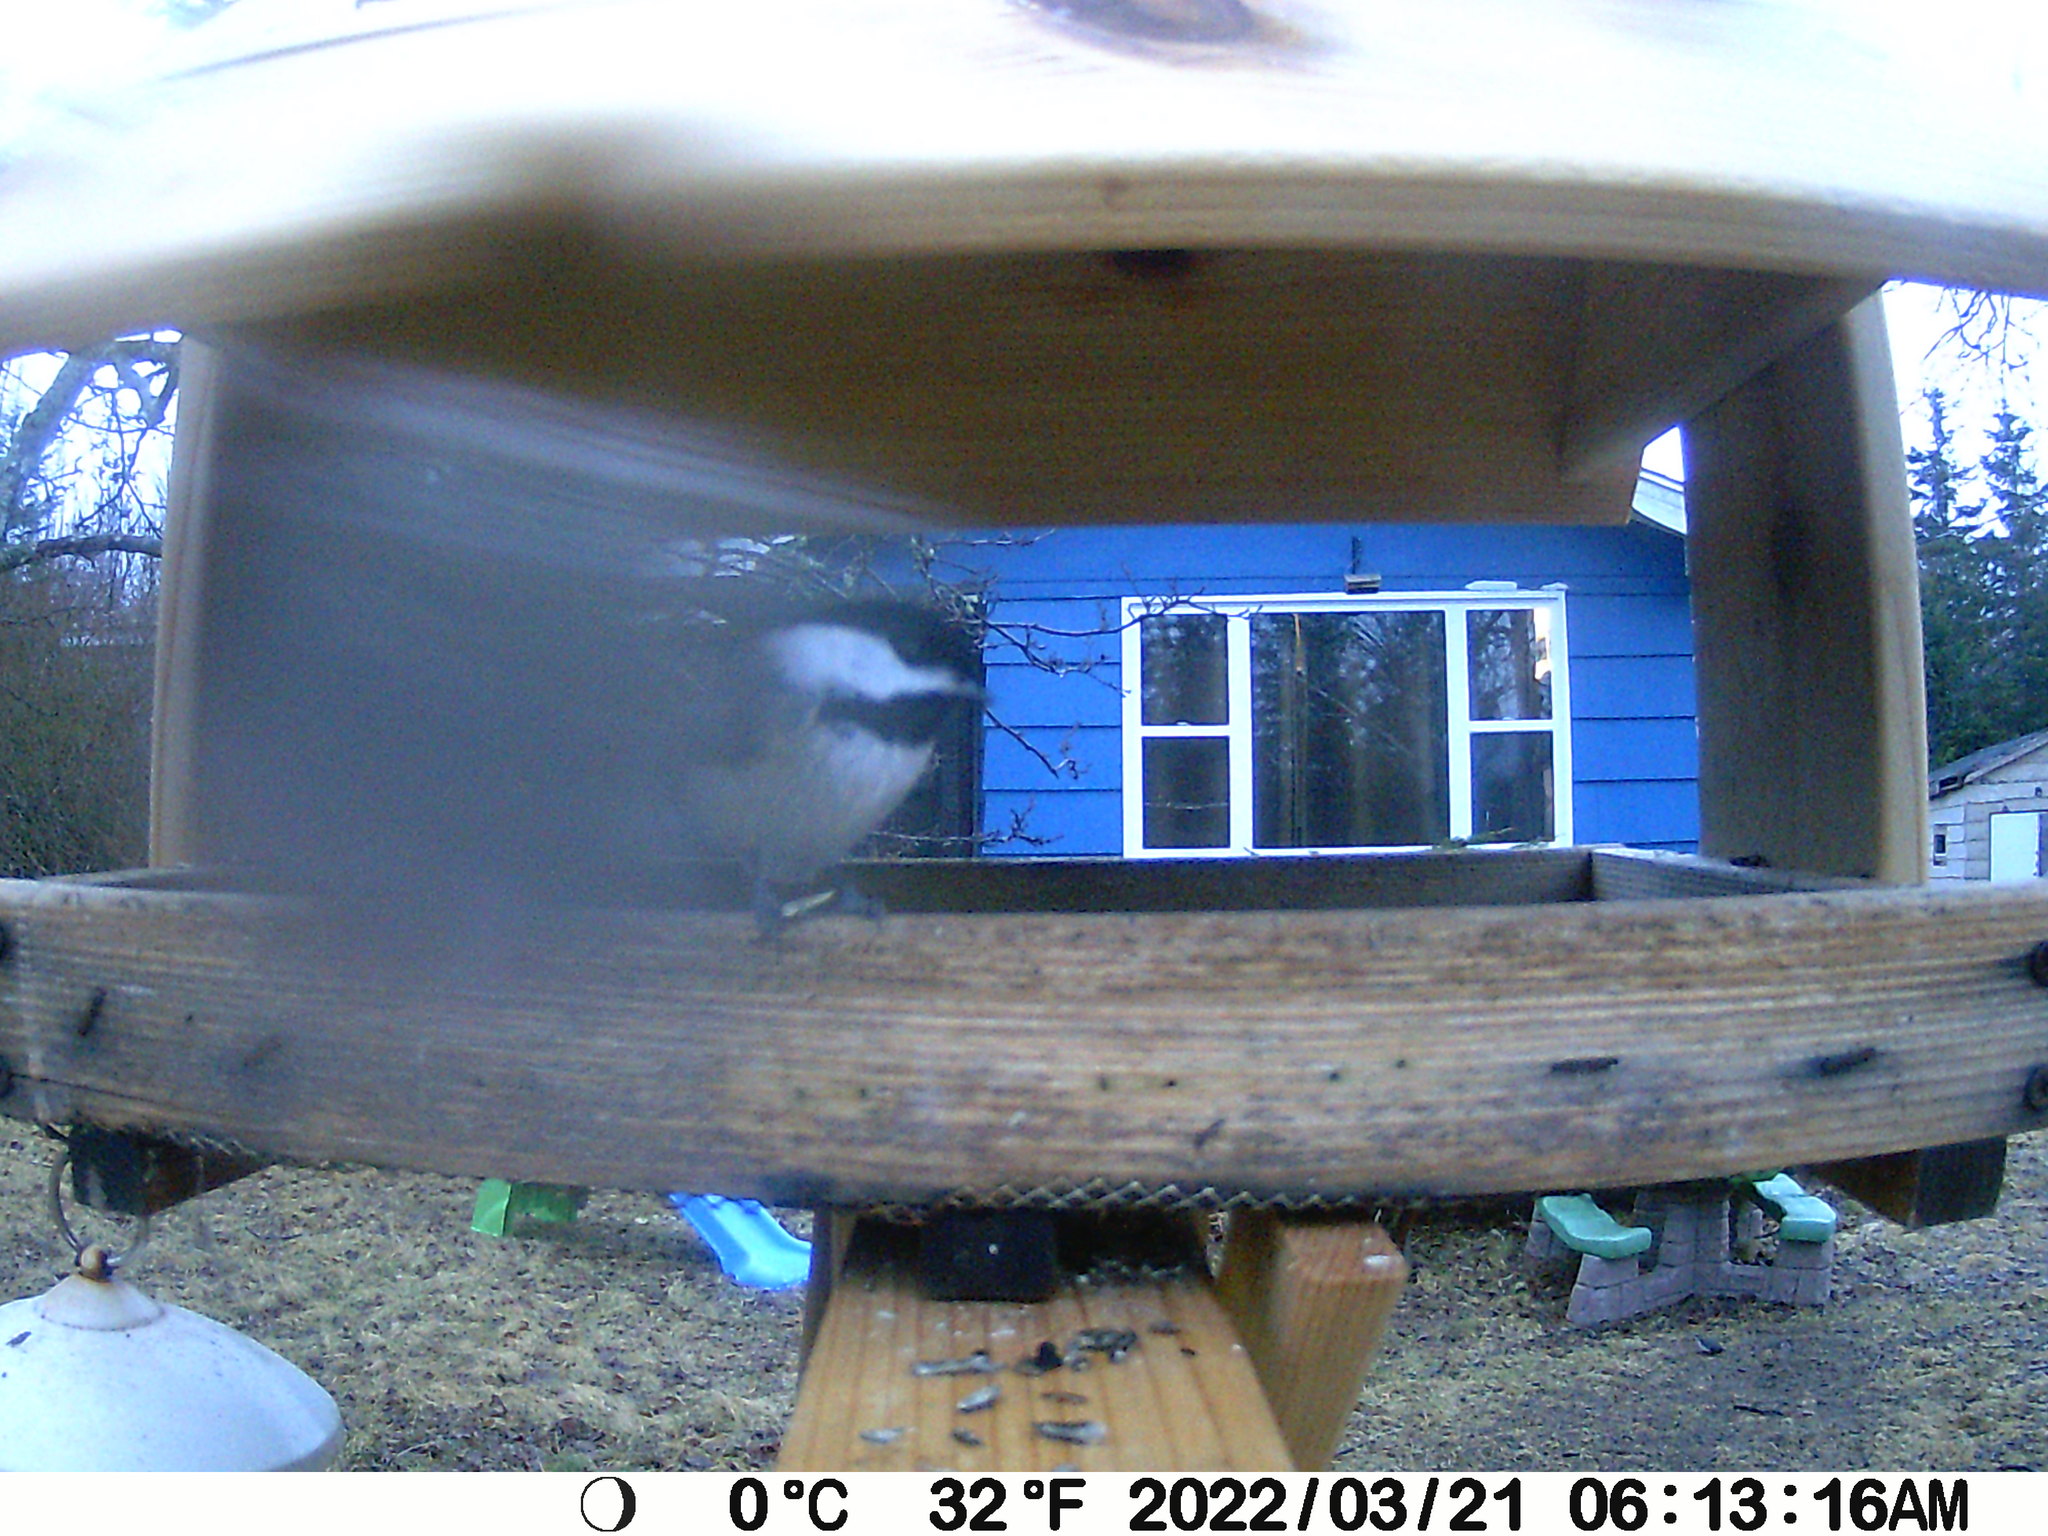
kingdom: Animalia
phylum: Chordata
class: Aves
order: Passeriformes
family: Paridae
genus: Poecile
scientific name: Poecile atricapillus
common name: Black-capped chickadee
